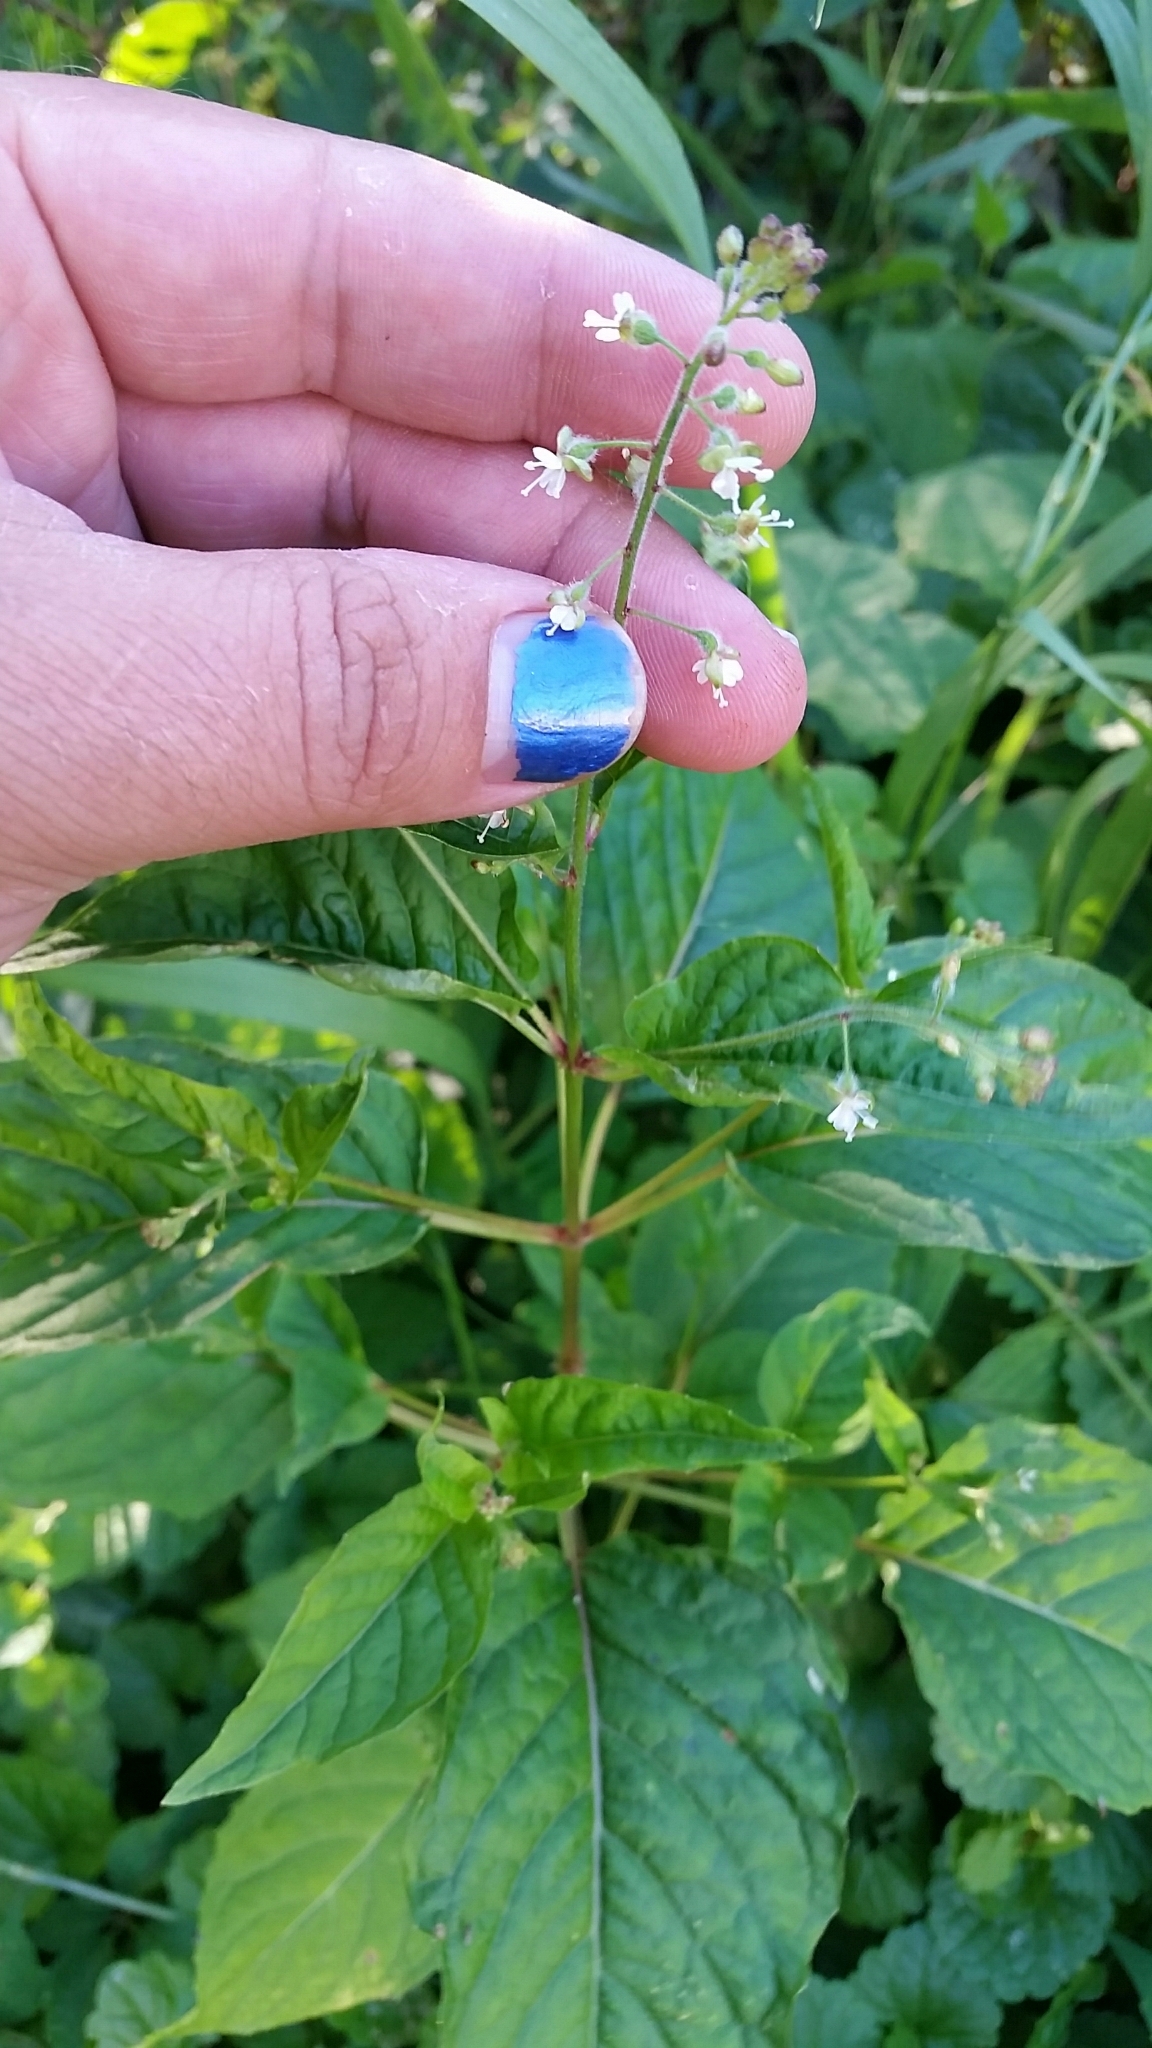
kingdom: Plantae
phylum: Tracheophyta
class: Magnoliopsida
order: Myrtales
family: Onagraceae
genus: Circaea
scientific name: Circaea canadensis
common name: Broad-leaved enchanter's nightshade
